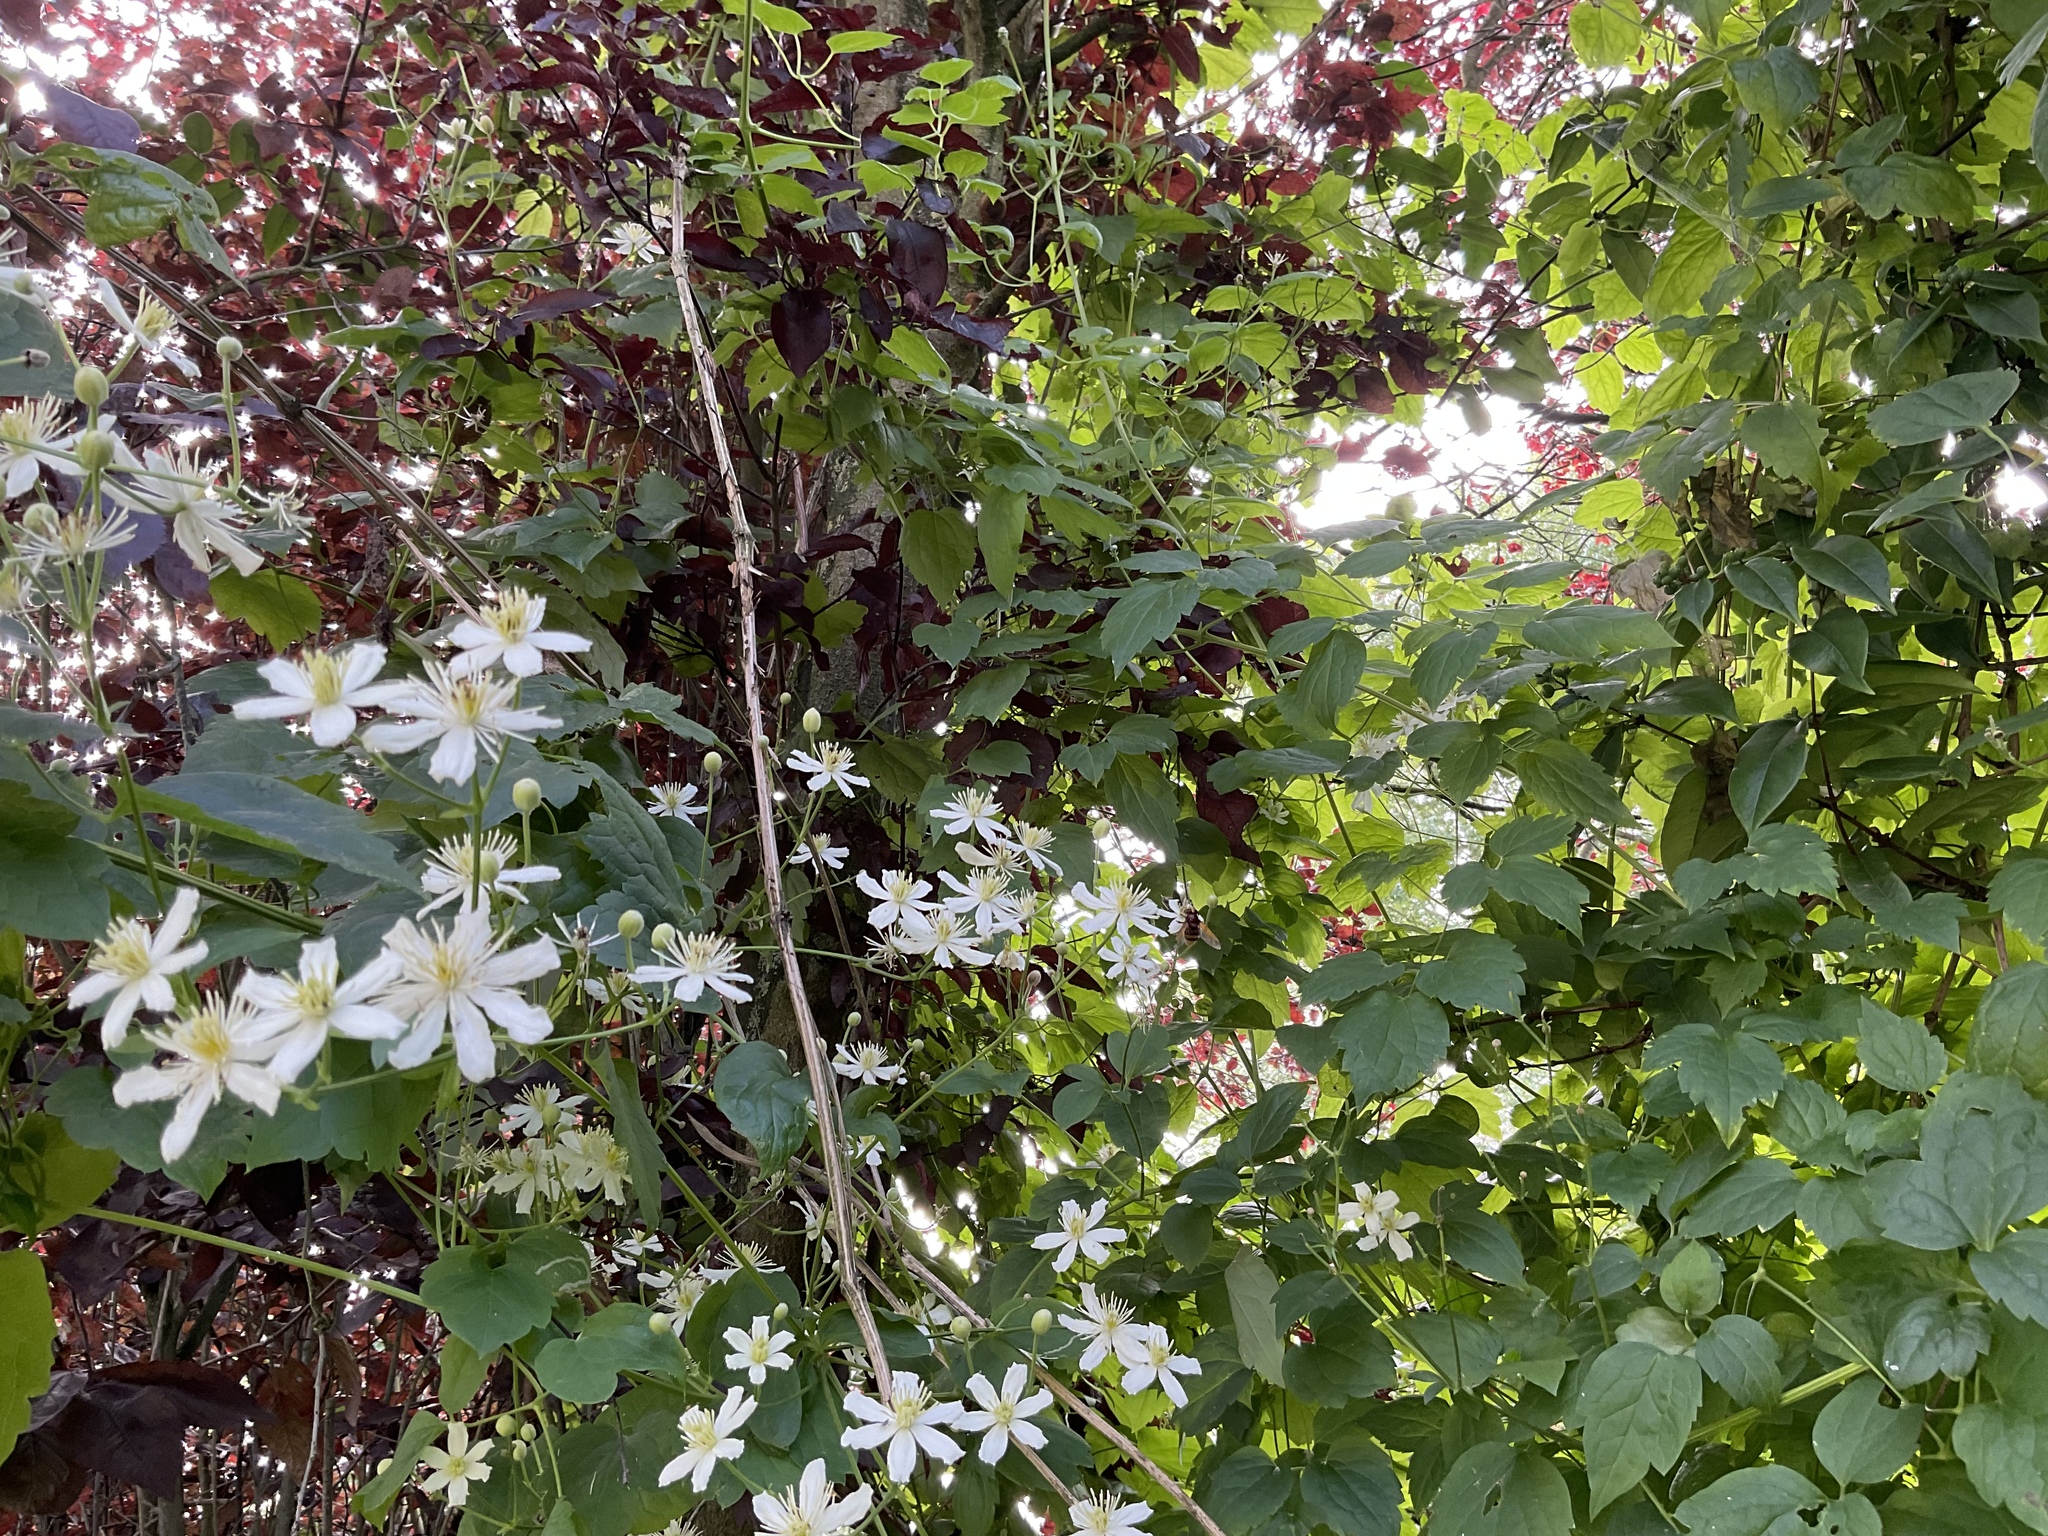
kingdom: Animalia
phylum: Arthropoda
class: Insecta
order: Diptera
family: Syrphidae
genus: Volucella
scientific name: Volucella zonaria
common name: Hornet hoverfly
